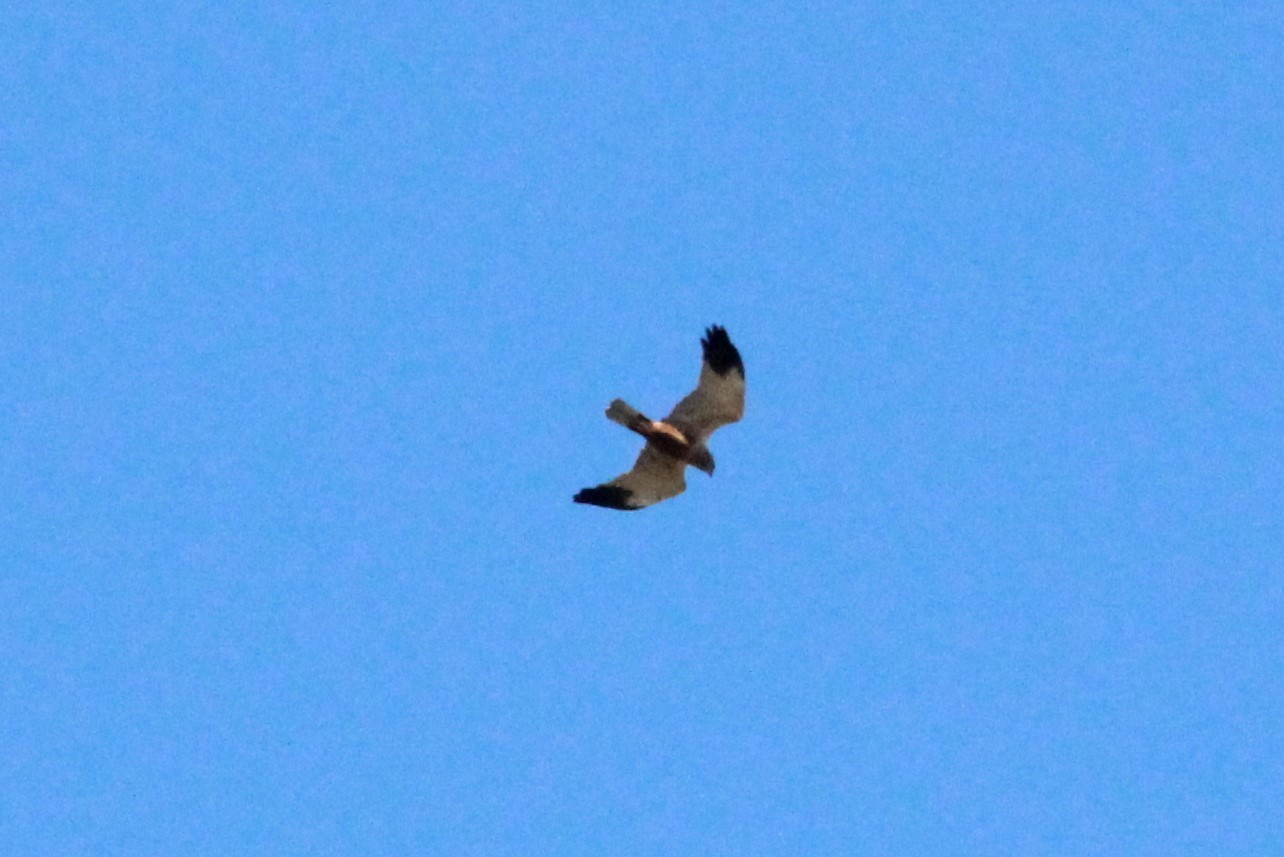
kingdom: Animalia
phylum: Chordata
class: Aves
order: Accipitriformes
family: Accipitridae
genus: Circus
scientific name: Circus aeruginosus
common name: Western marsh harrier
